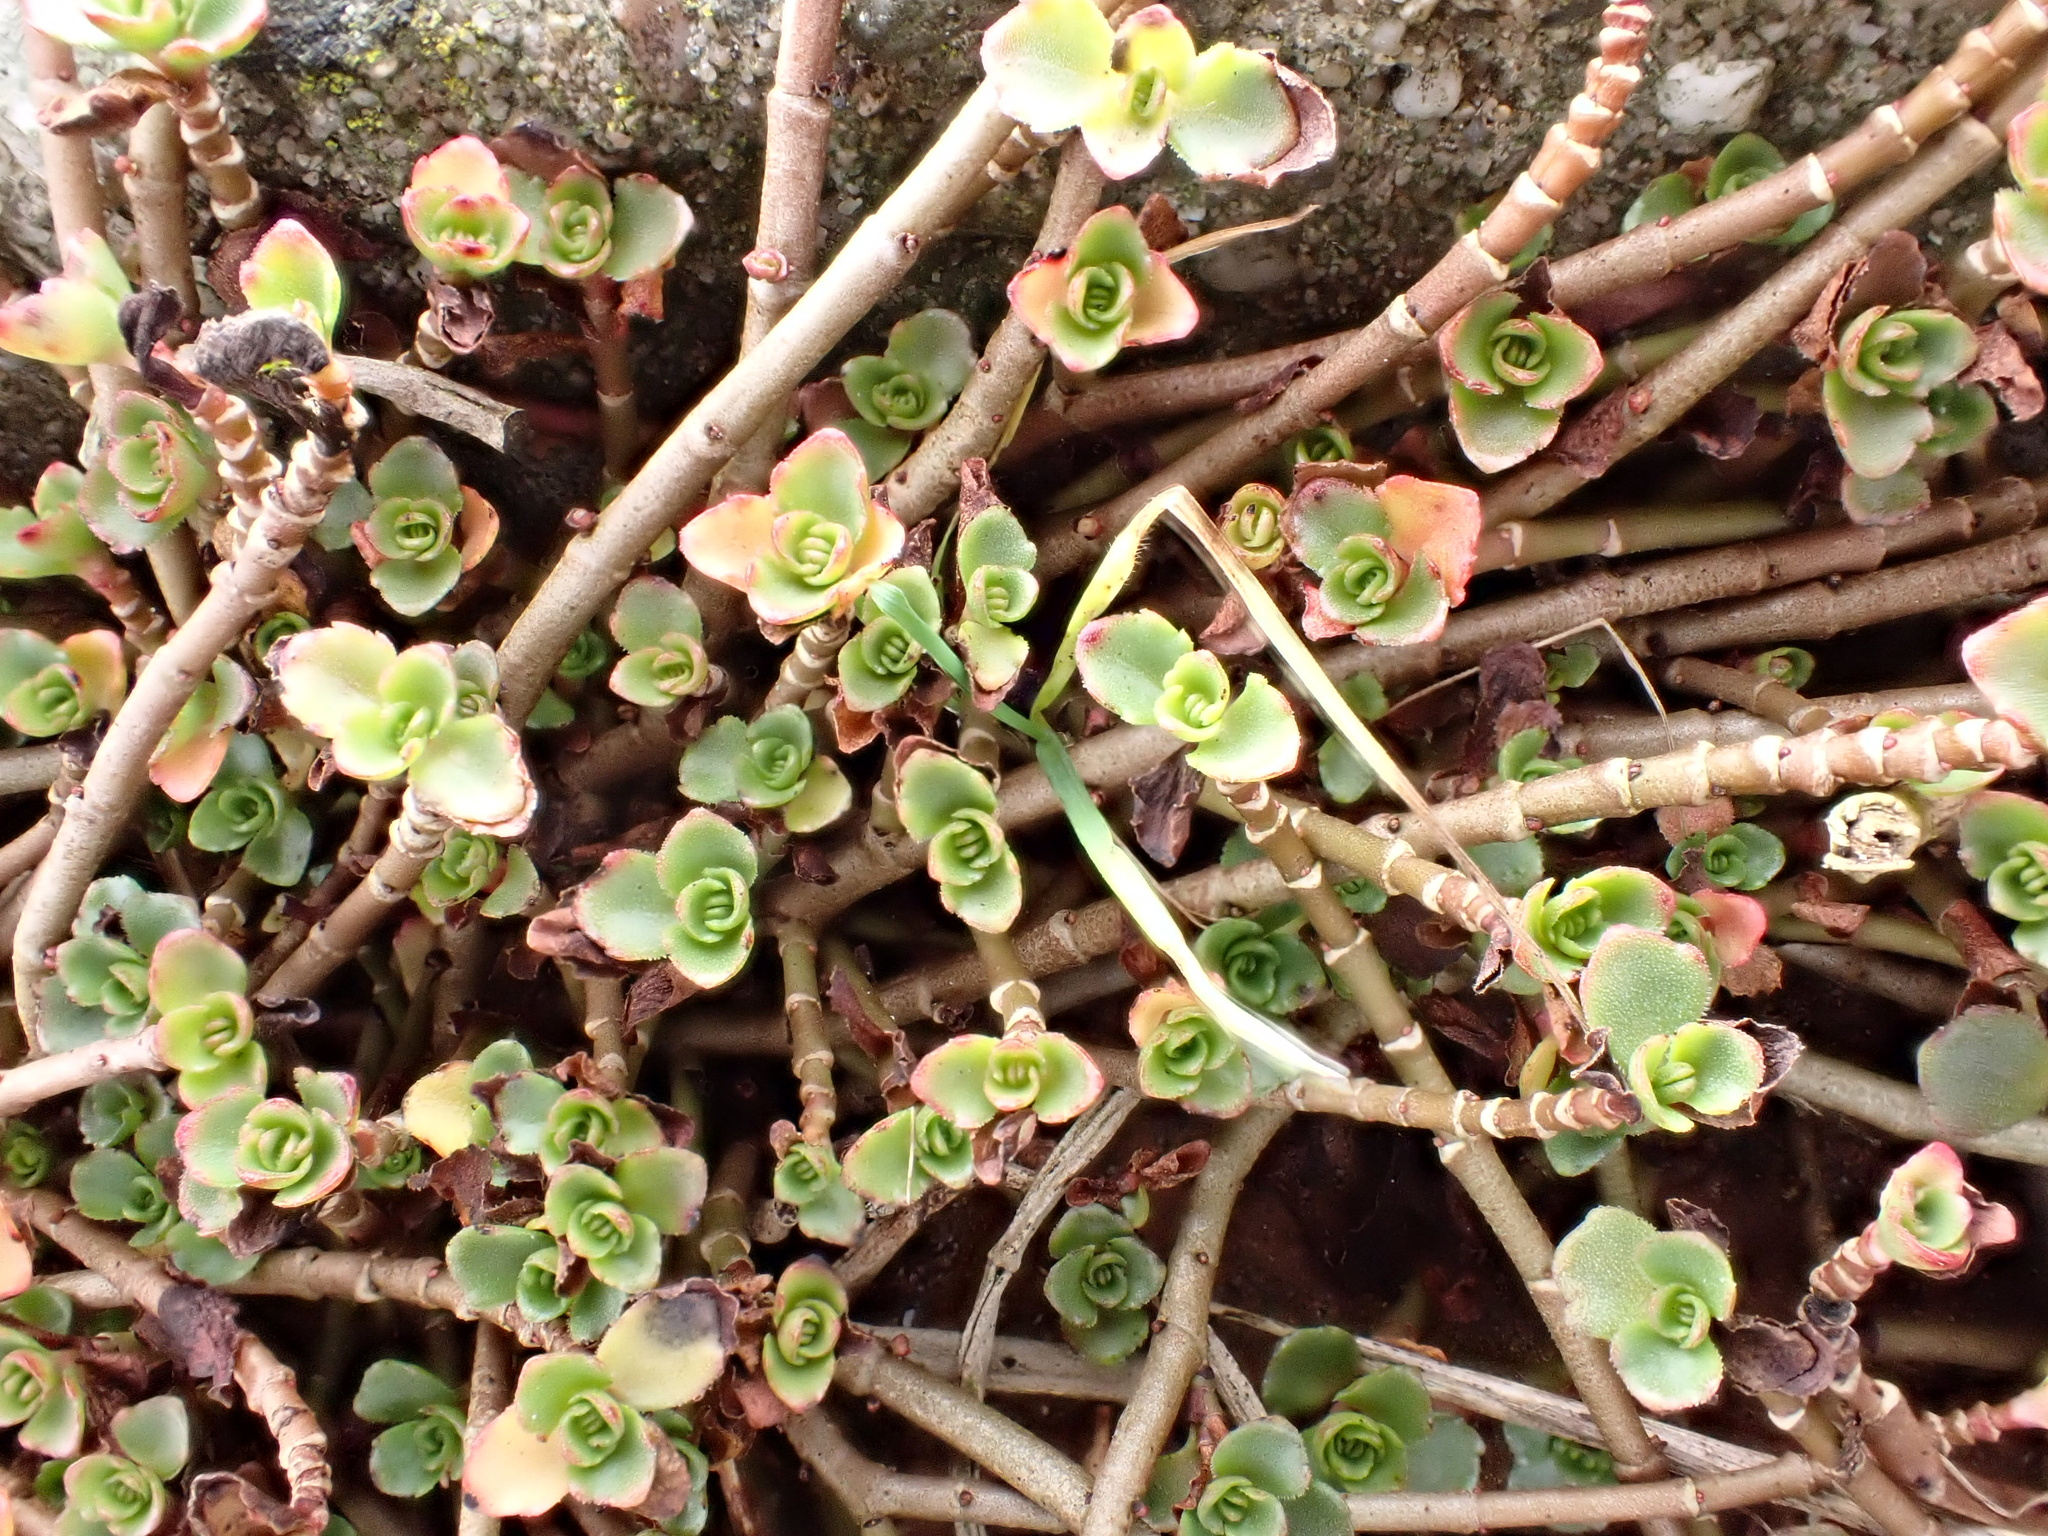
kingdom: Plantae
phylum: Tracheophyta
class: Magnoliopsida
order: Saxifragales
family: Crassulaceae
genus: Phedimus
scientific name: Phedimus spurius
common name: Caucasian stonecrop
